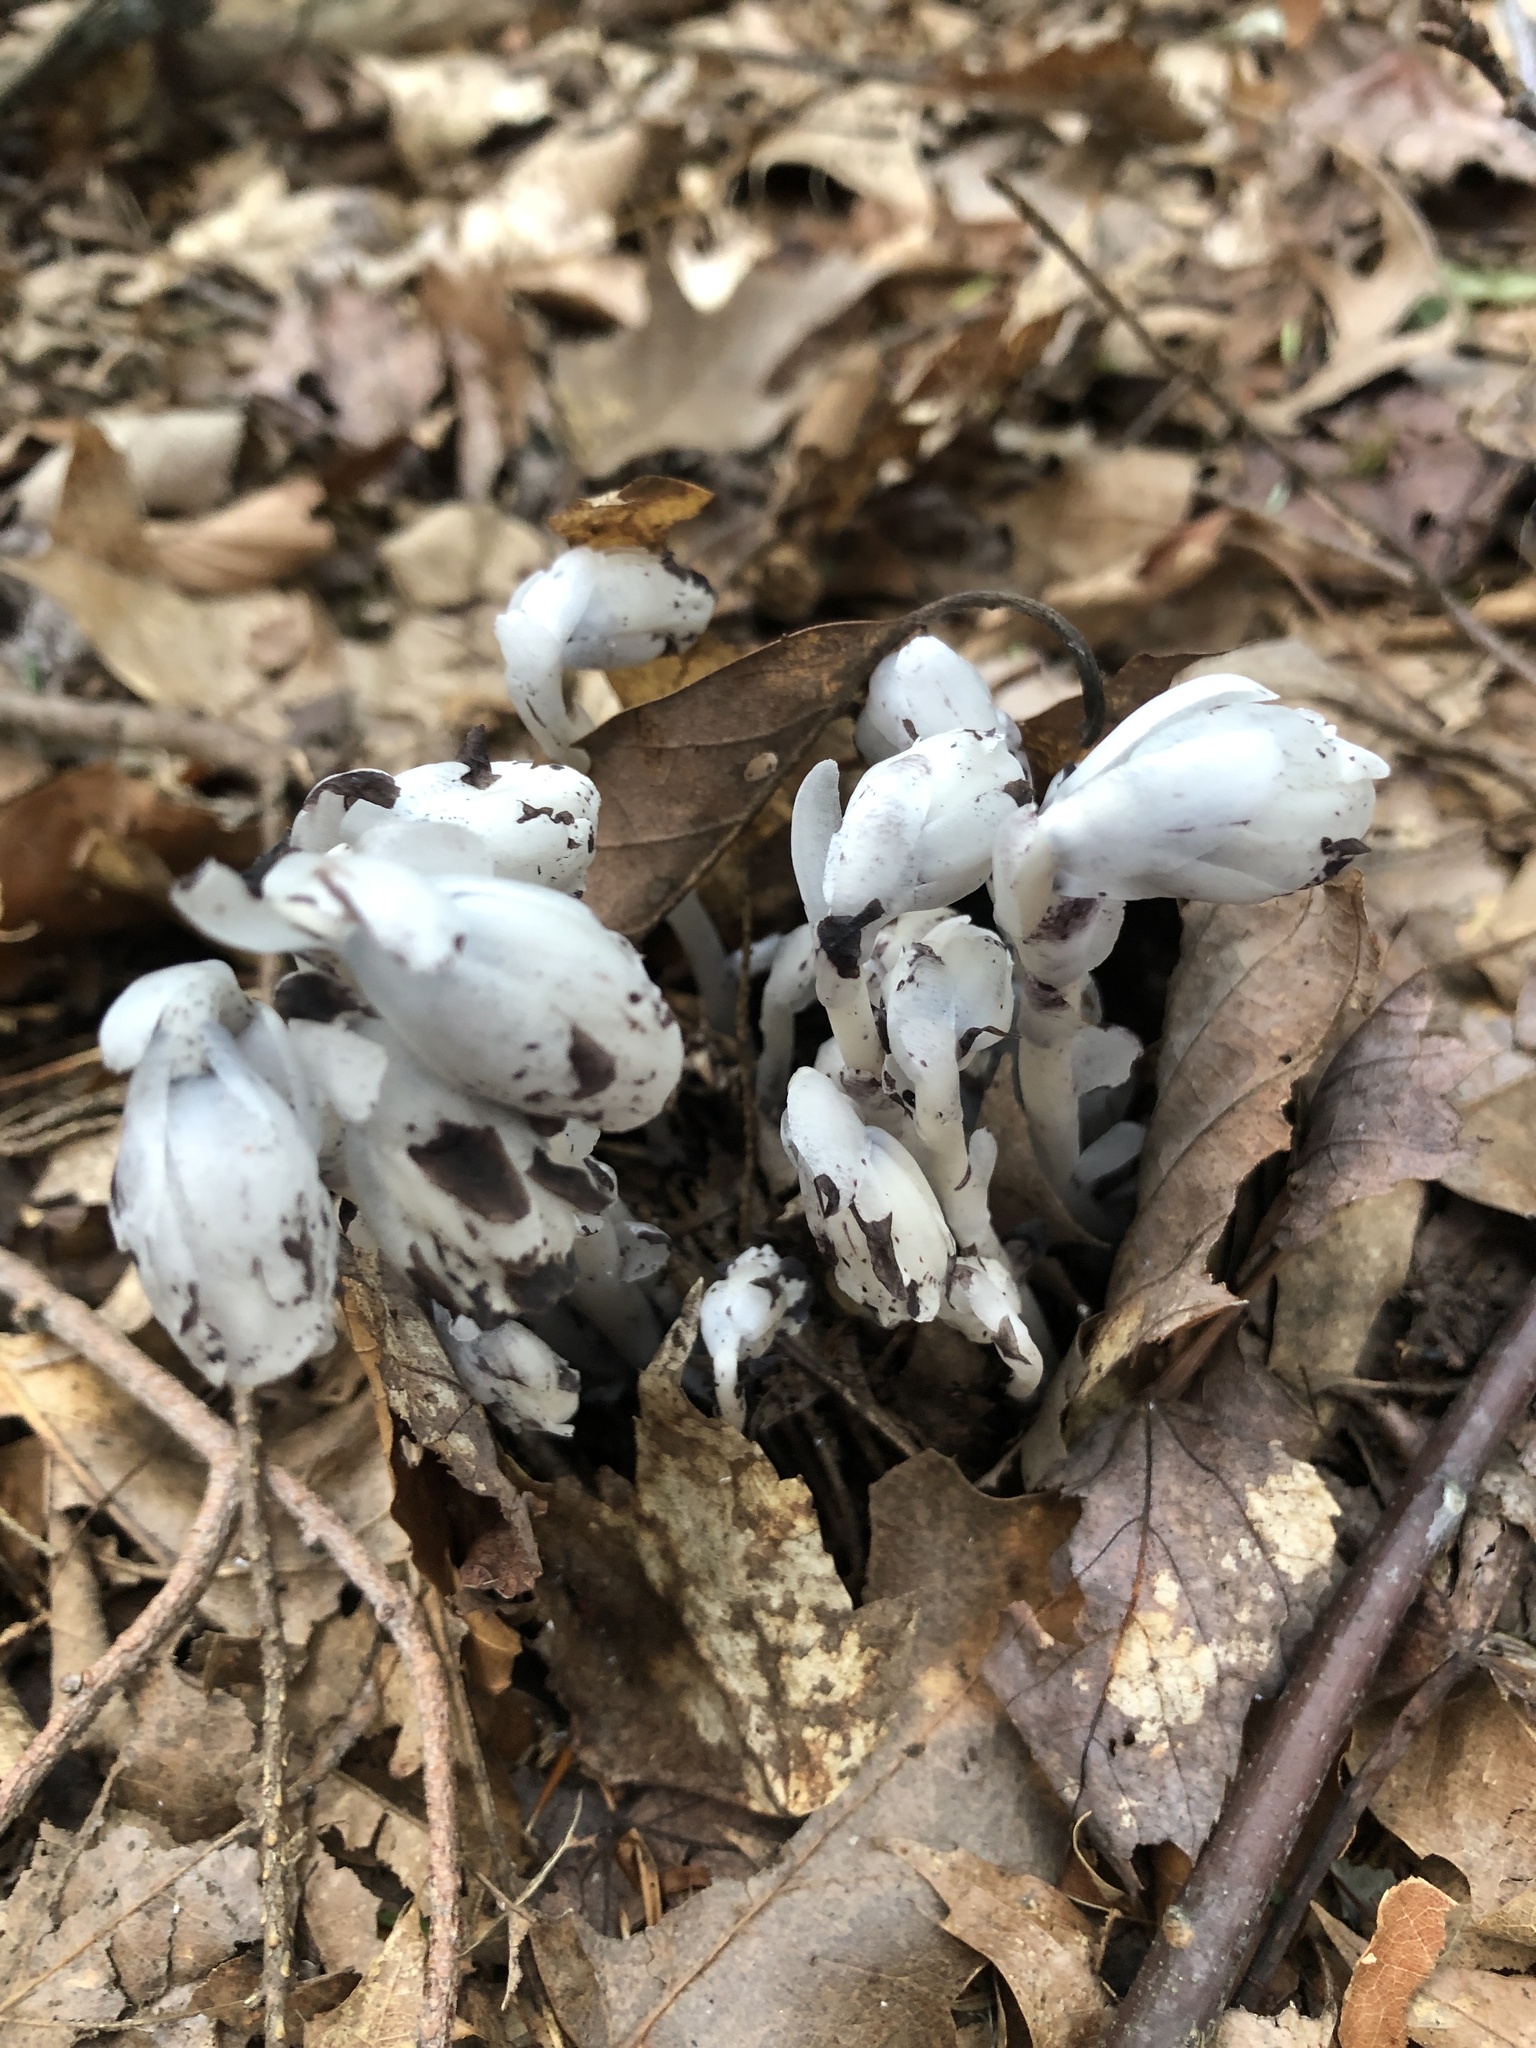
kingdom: Plantae
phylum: Tracheophyta
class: Magnoliopsida
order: Ericales
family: Ericaceae
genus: Monotropa
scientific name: Monotropa uniflora
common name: Convulsion root
